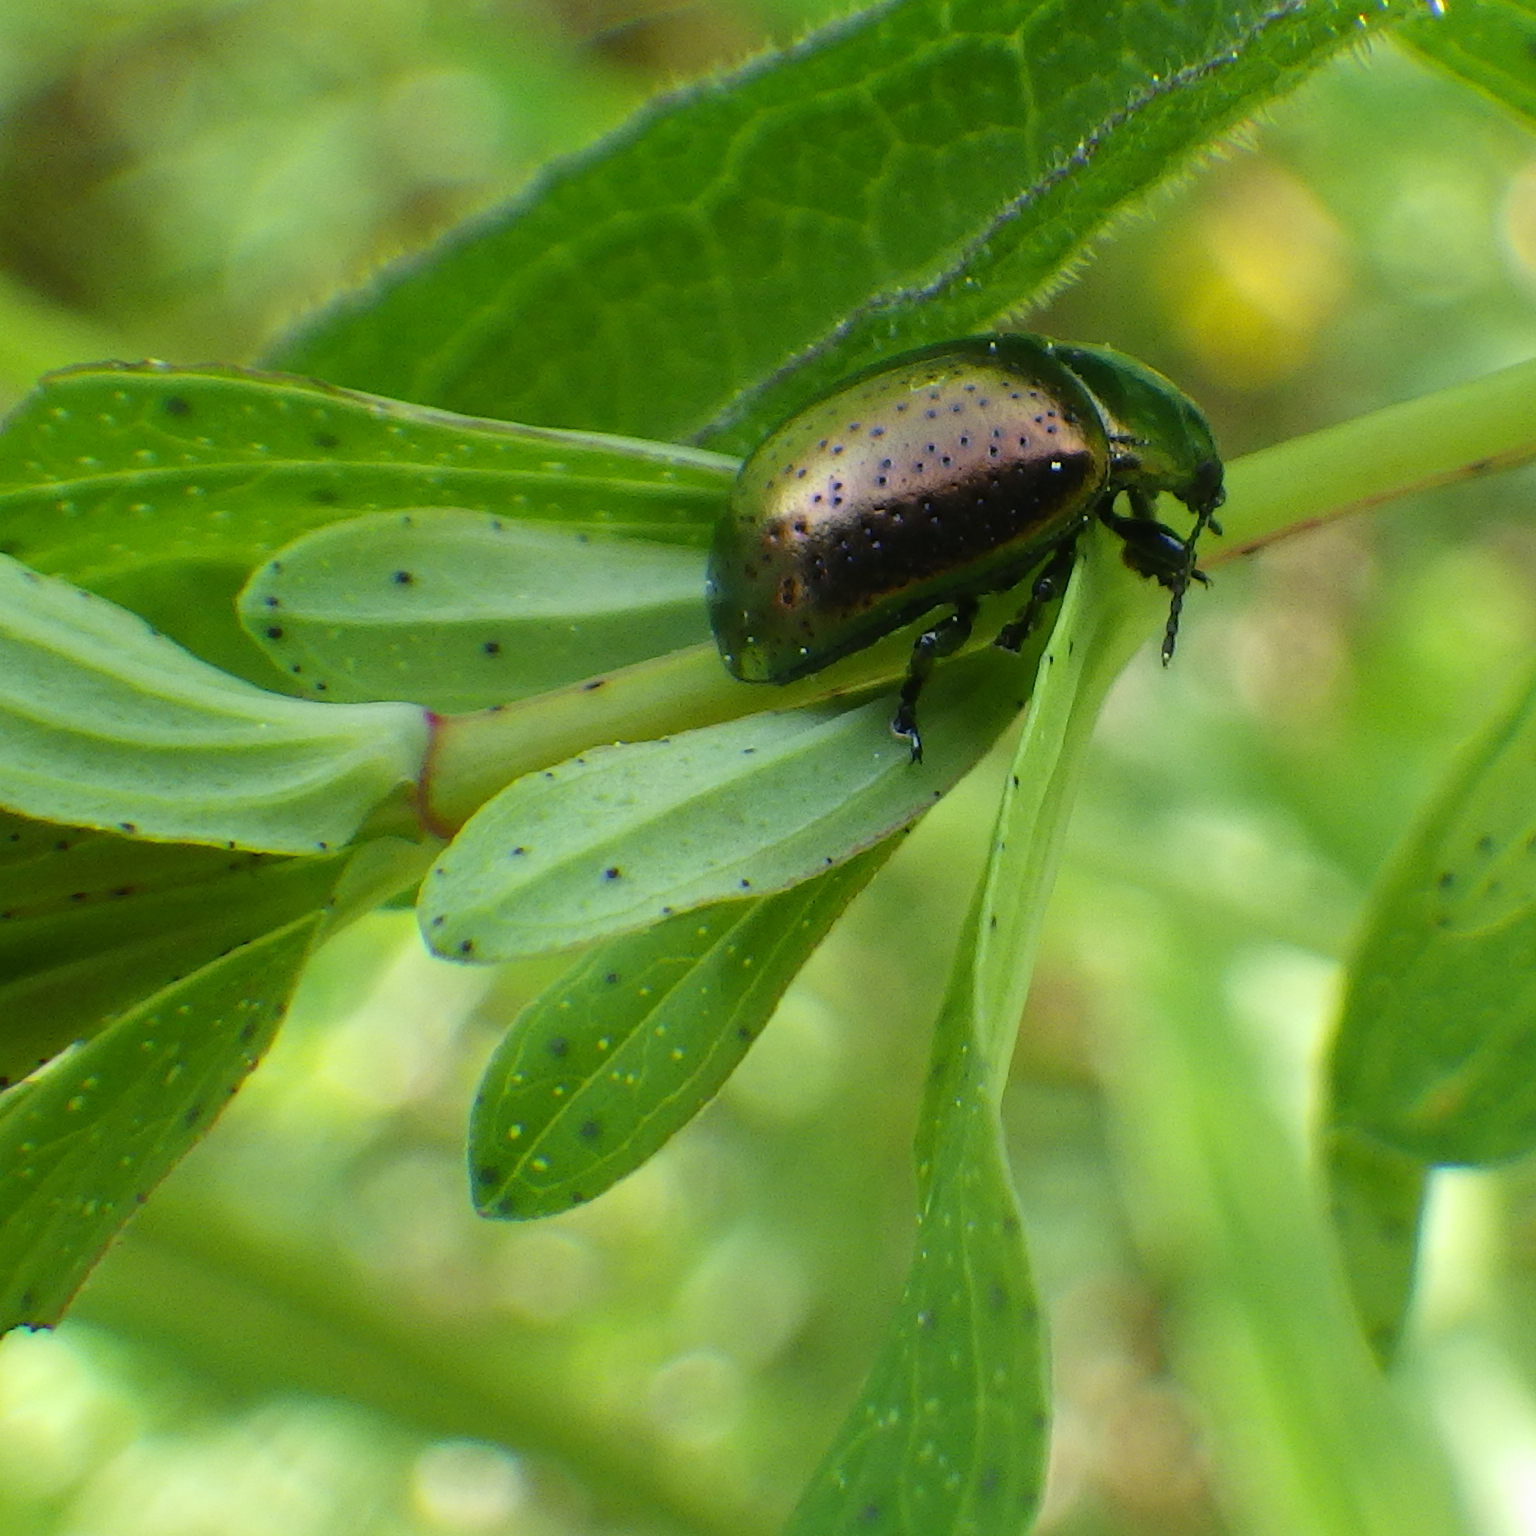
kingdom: Animalia
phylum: Arthropoda
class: Insecta
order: Coleoptera
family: Chrysomelidae
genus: Chrysolina
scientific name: Chrysolina hyperici
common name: St. johnswort beetle
